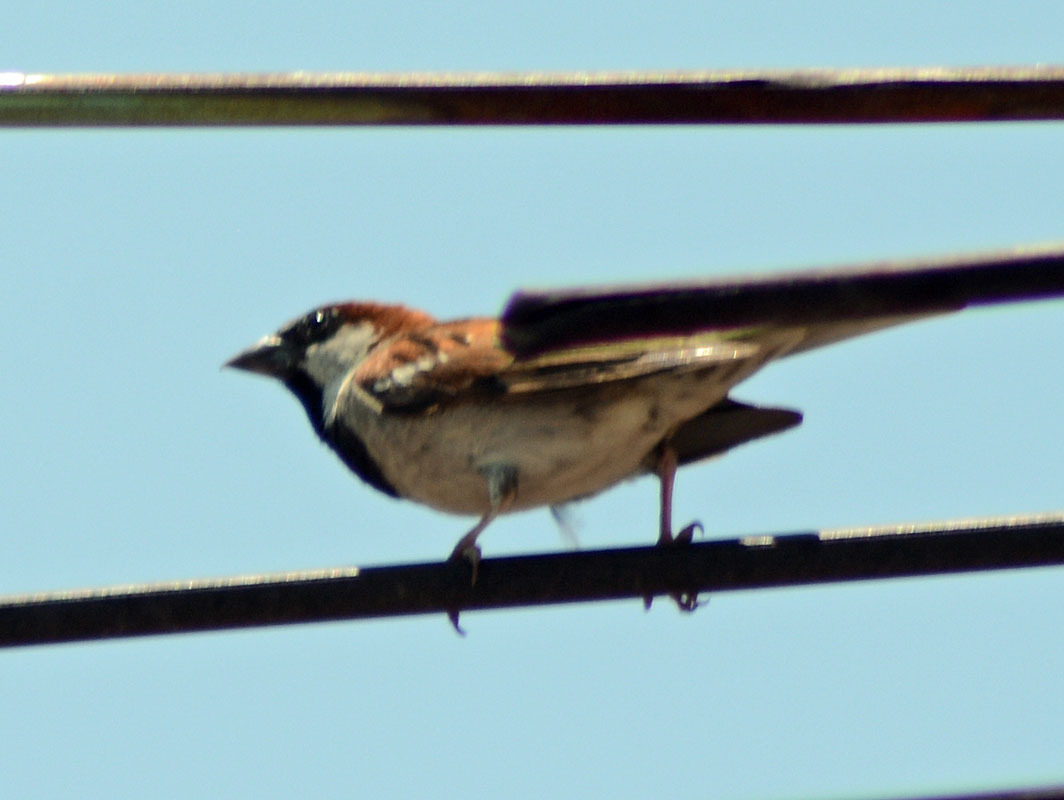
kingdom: Animalia
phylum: Chordata
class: Aves
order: Passeriformes
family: Passeridae
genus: Passer
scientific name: Passer domesticus
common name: House sparrow
